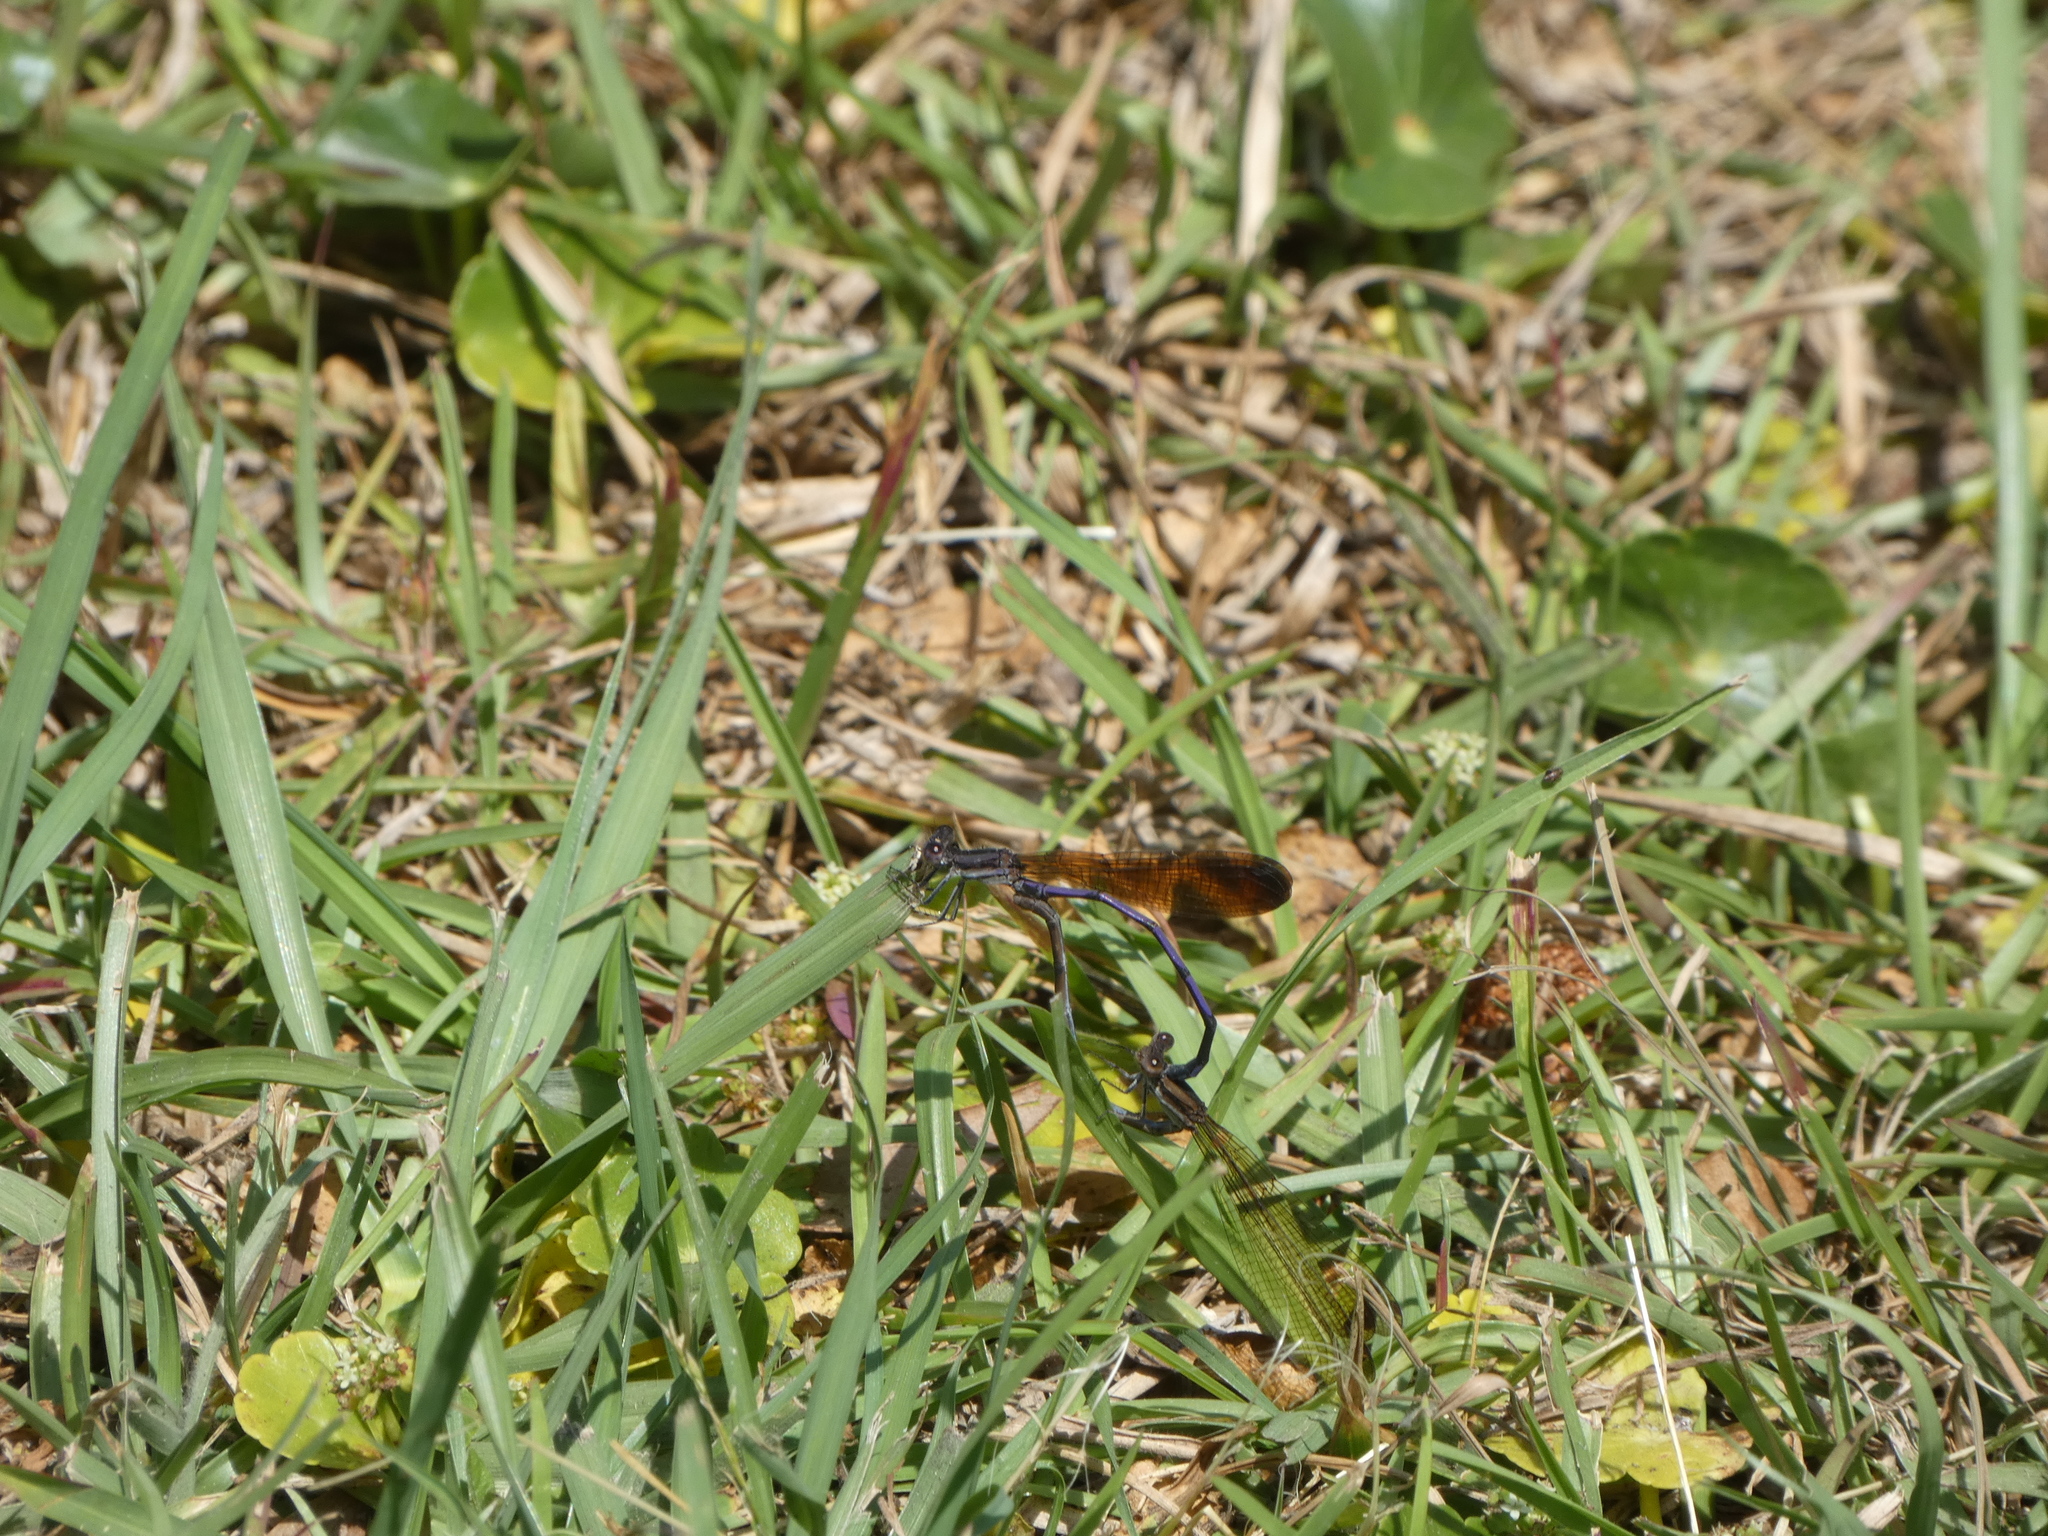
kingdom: Animalia
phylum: Arthropoda
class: Insecta
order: Odonata
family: Coenagrionidae
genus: Argia
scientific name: Argia fumipennis
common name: Variable dancer
